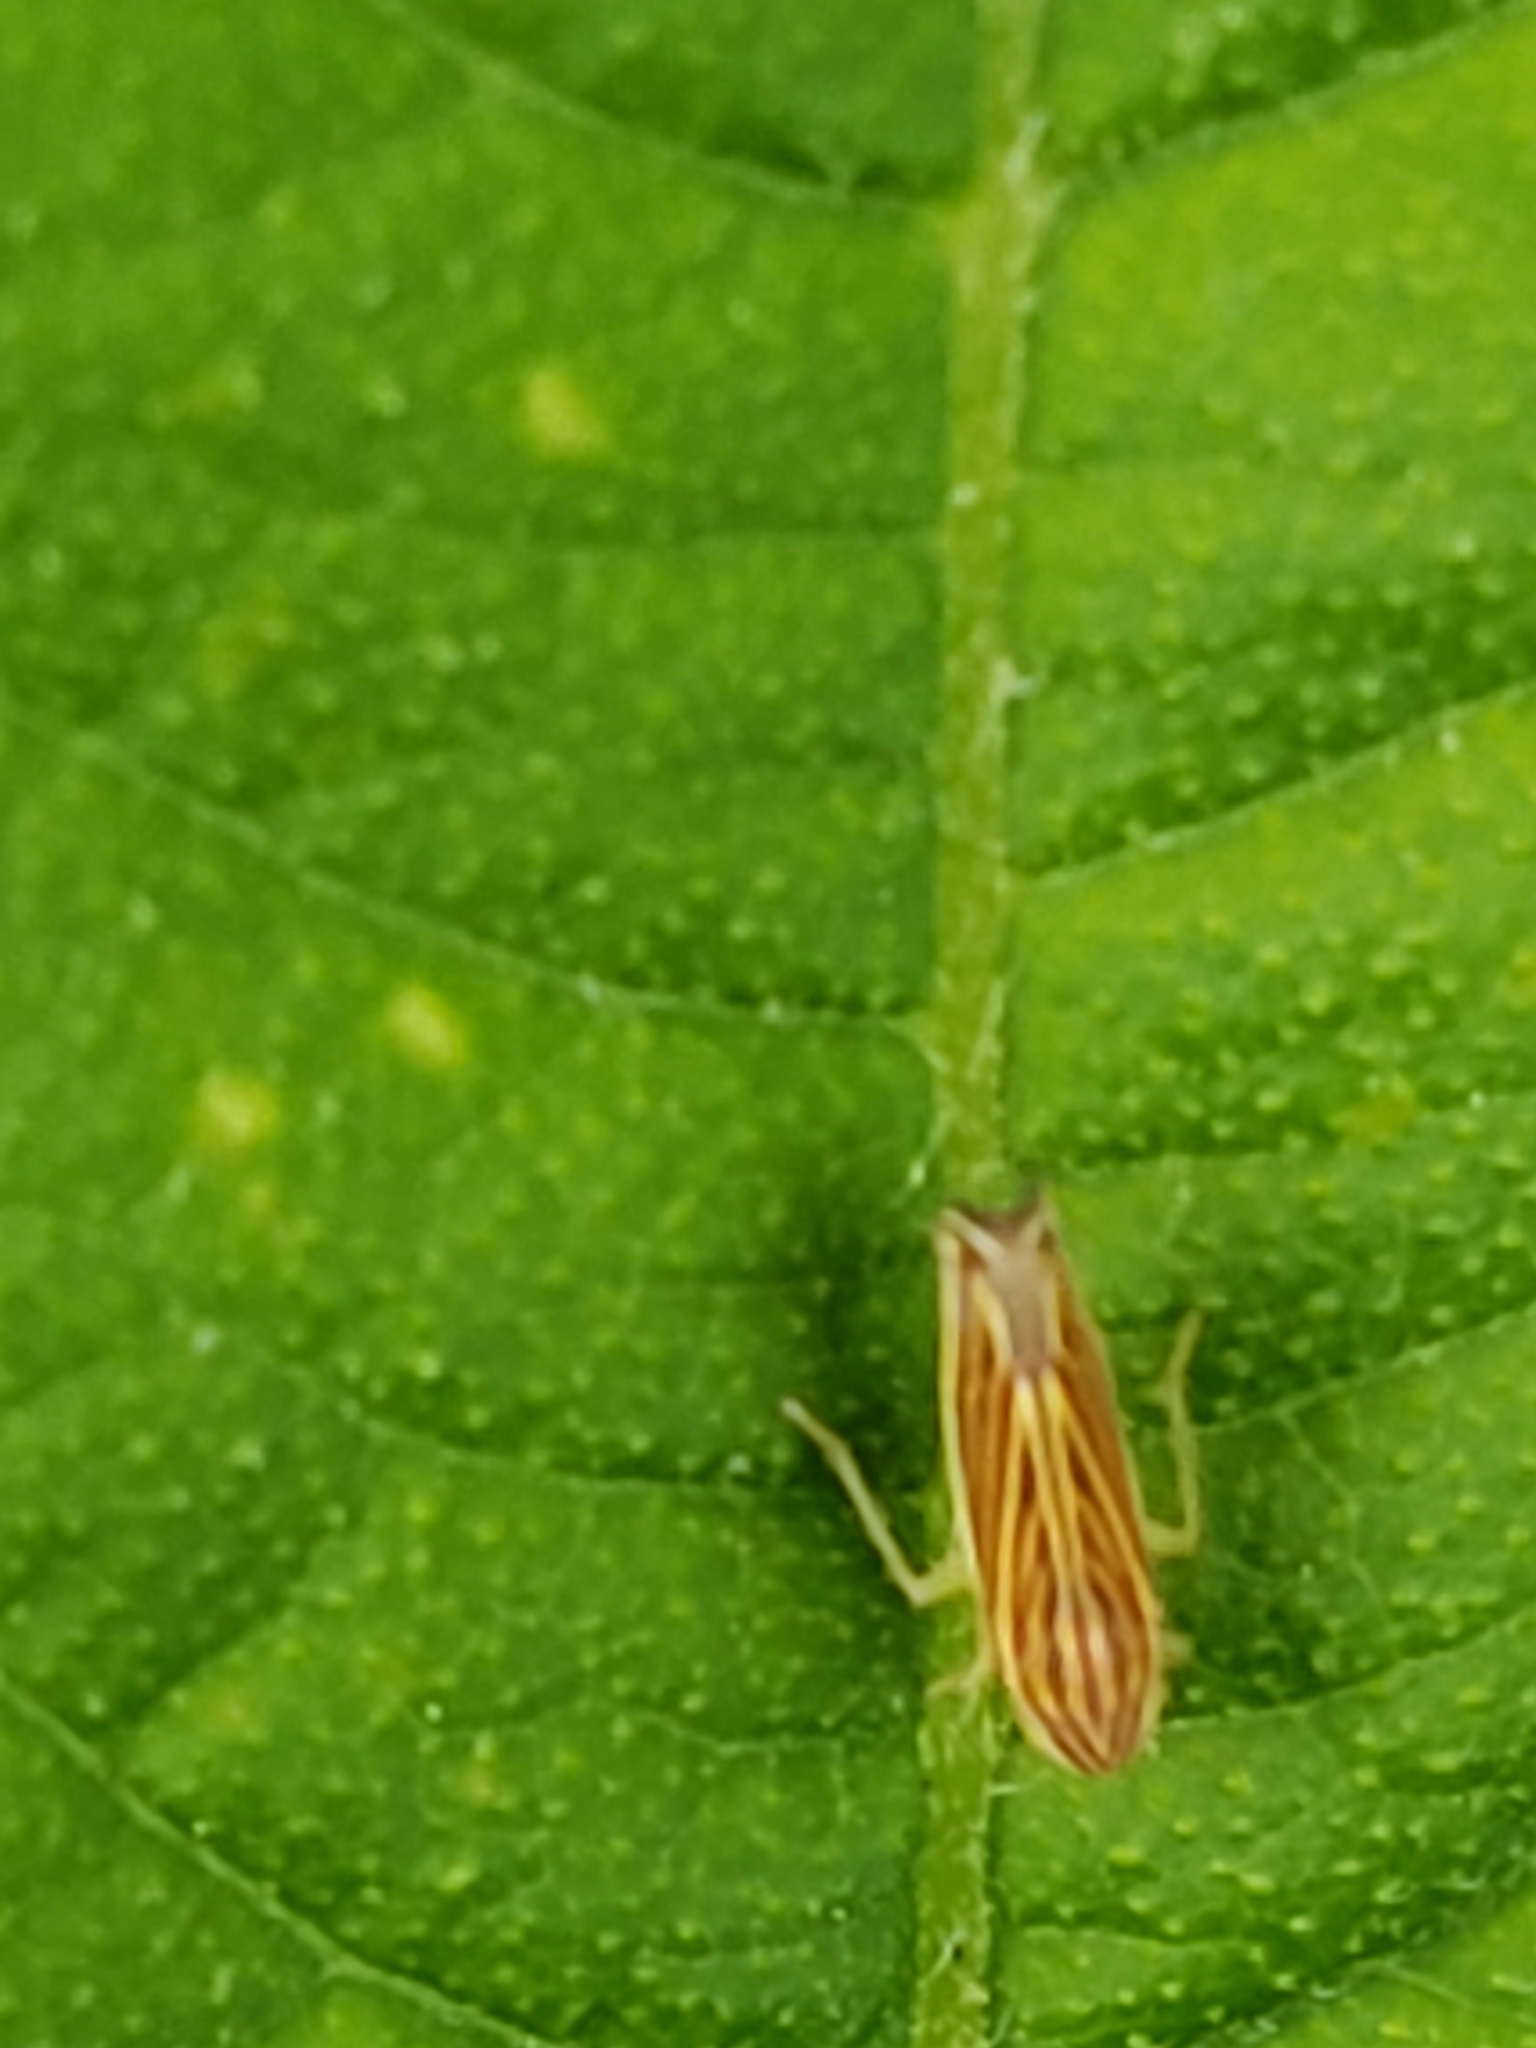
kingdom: Animalia
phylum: Arthropoda
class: Insecta
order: Hemiptera
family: Cicadellidae
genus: Sibovia
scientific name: Sibovia occatoria
